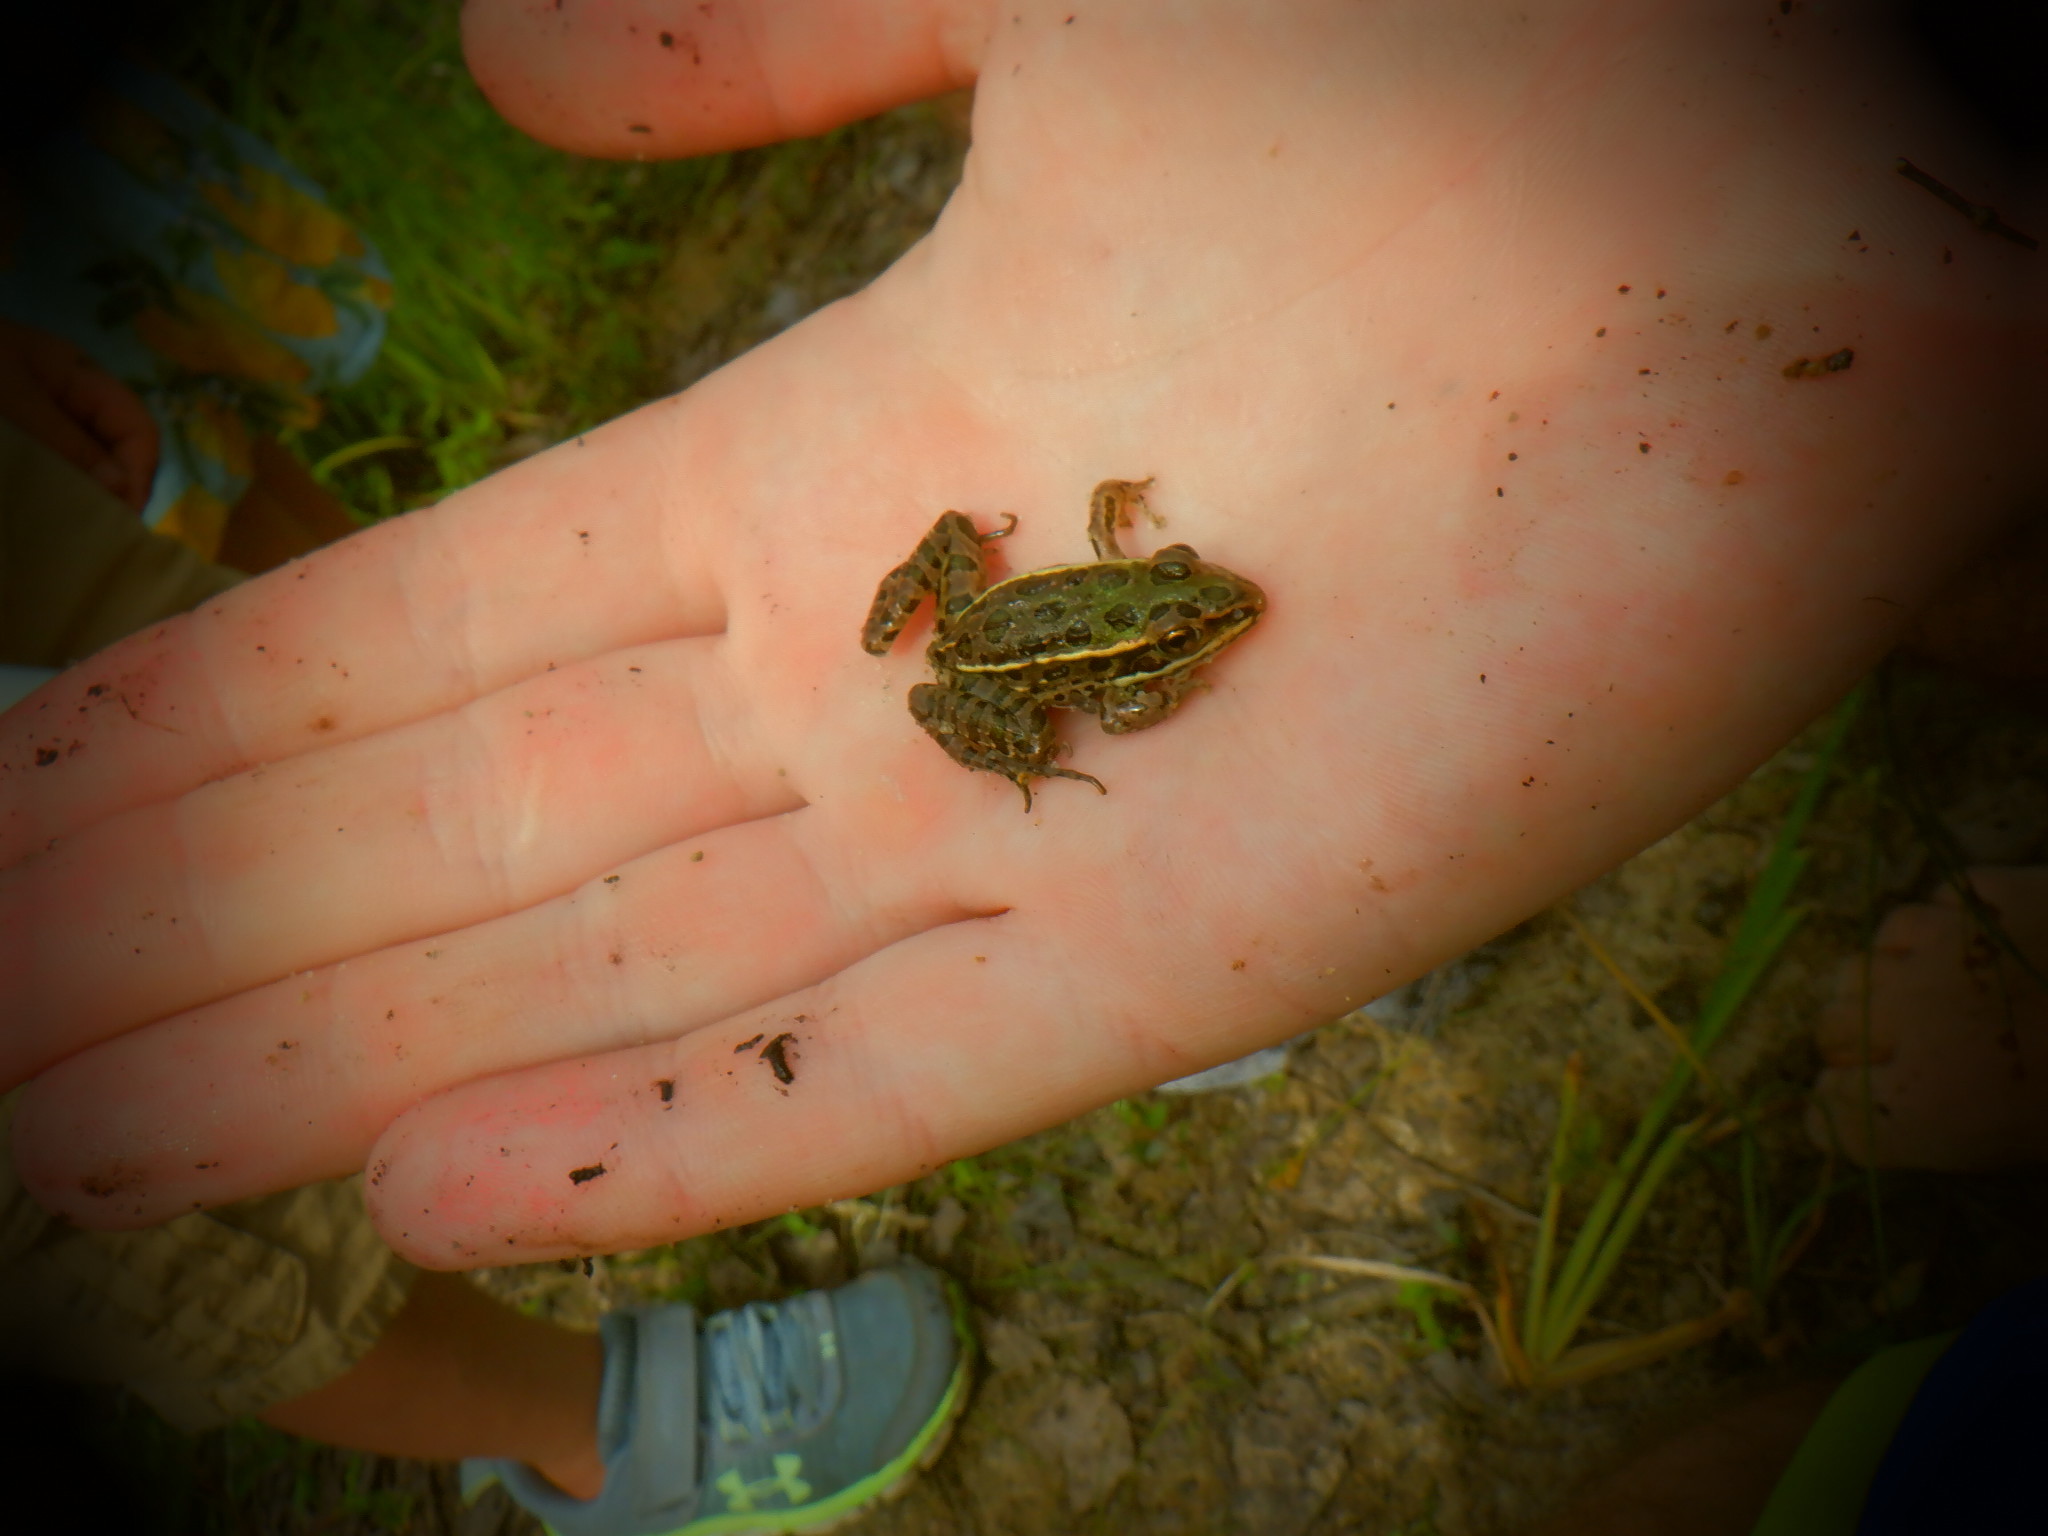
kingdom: Animalia
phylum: Chordata
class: Amphibia
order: Anura
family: Ranidae
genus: Lithobates
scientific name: Lithobates pipiens
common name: Northern leopard frog
